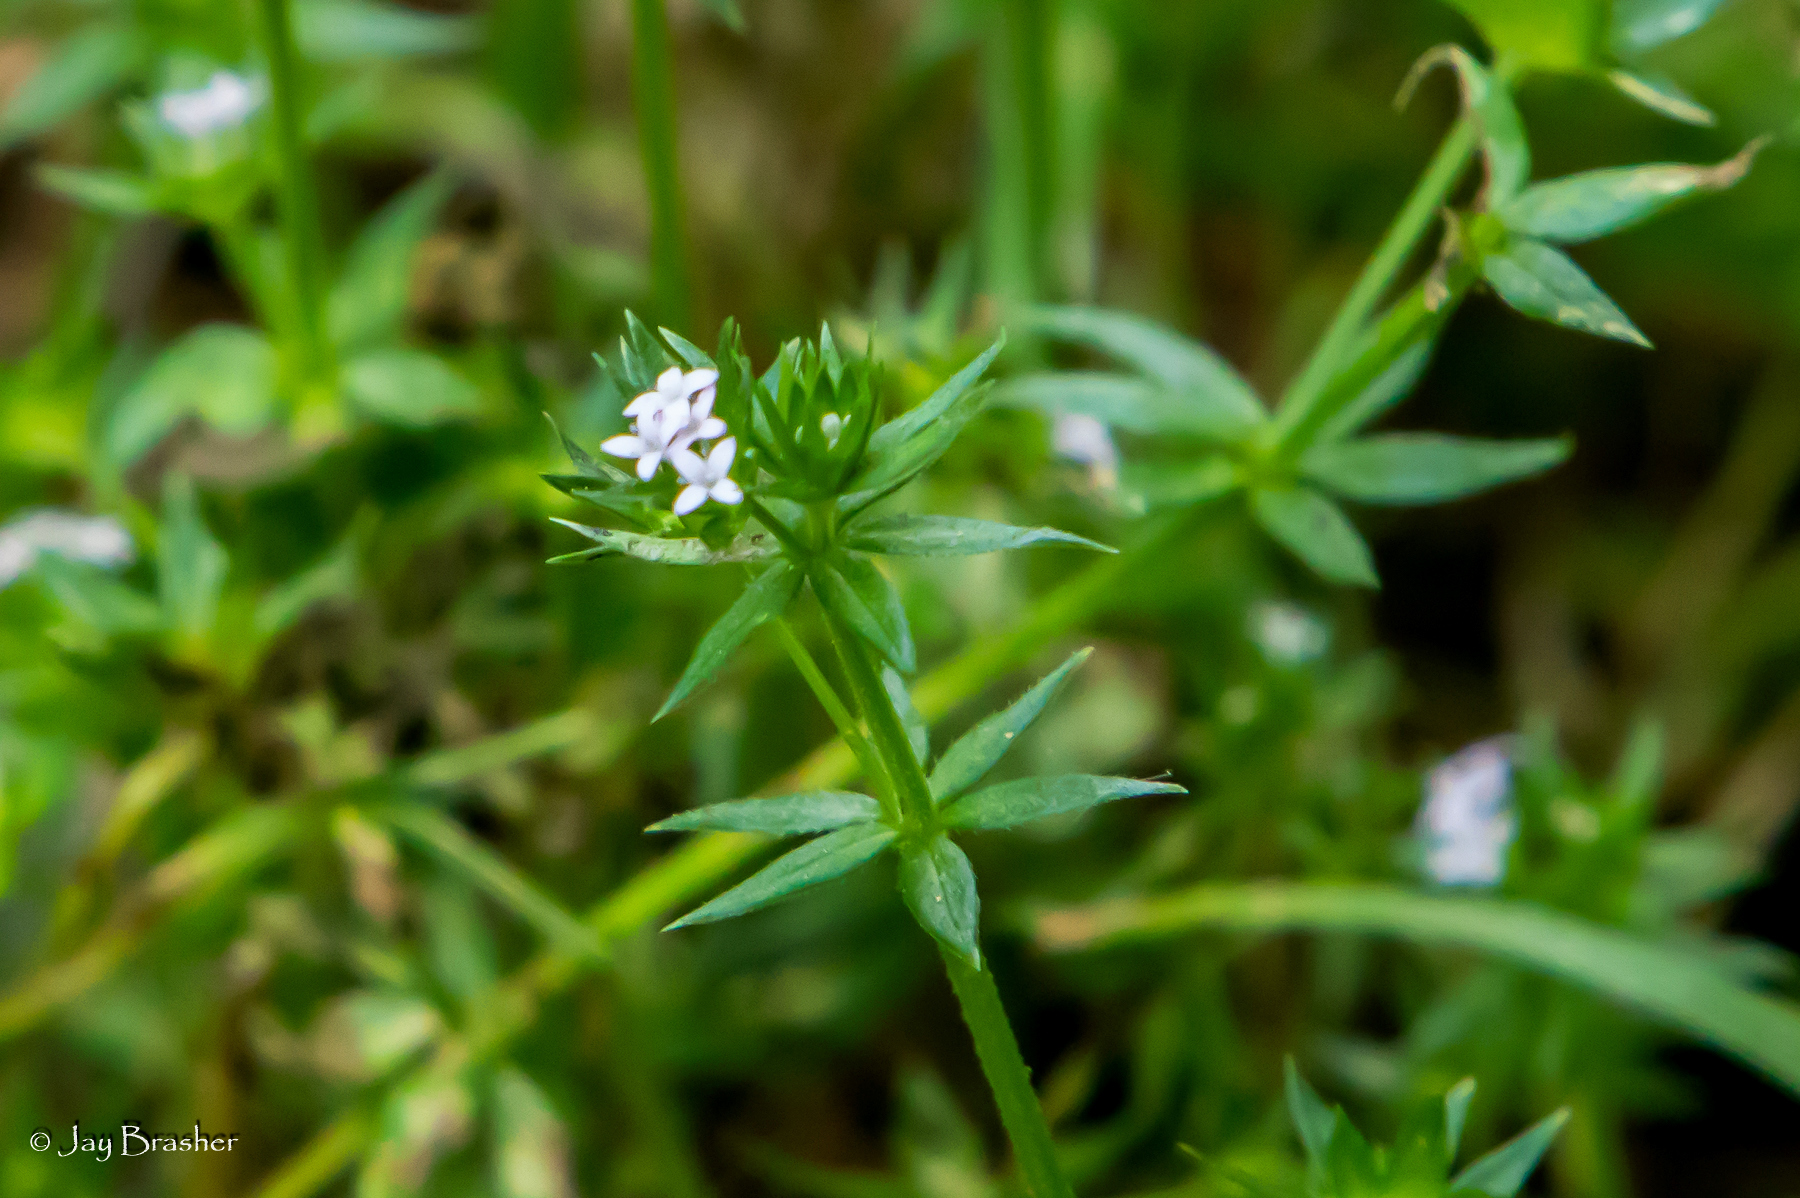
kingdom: Plantae
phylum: Tracheophyta
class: Magnoliopsida
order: Gentianales
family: Rubiaceae
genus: Sherardia
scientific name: Sherardia arvensis
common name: Field madder
